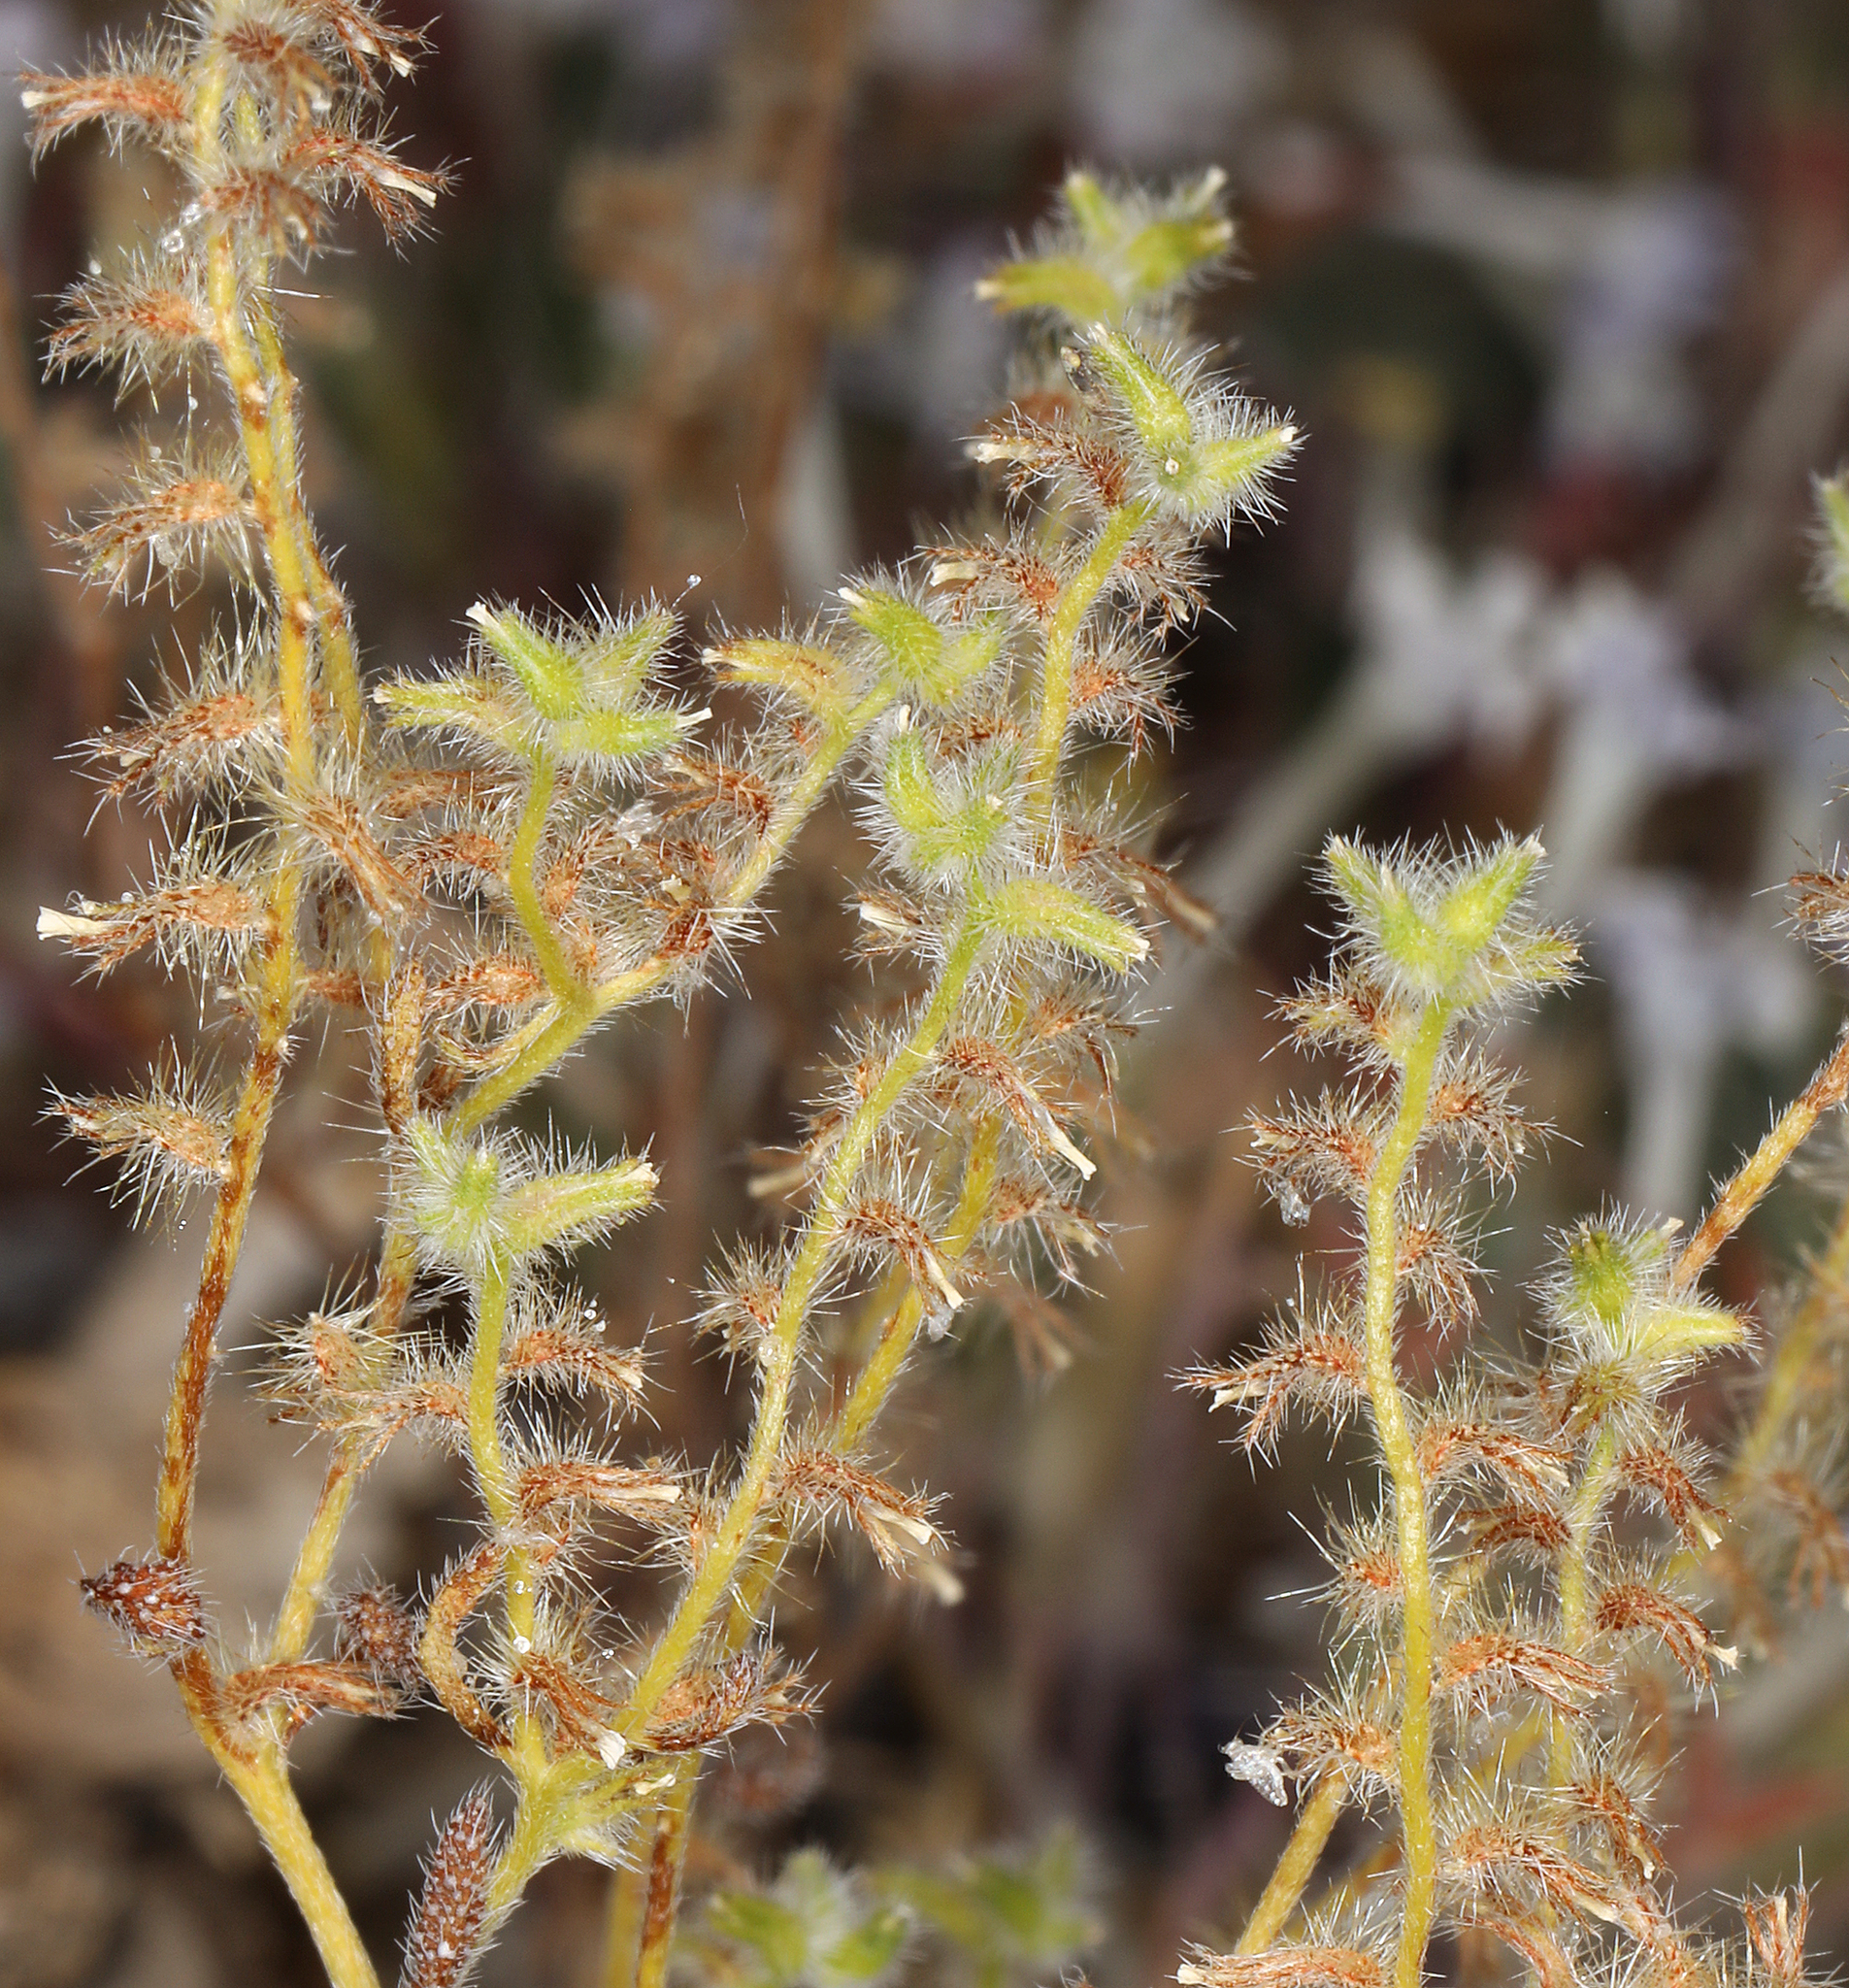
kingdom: Plantae
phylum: Tracheophyta
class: Magnoliopsida
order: Boraginales
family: Boraginaceae
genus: Cryptantha
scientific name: Cryptantha recurvata
